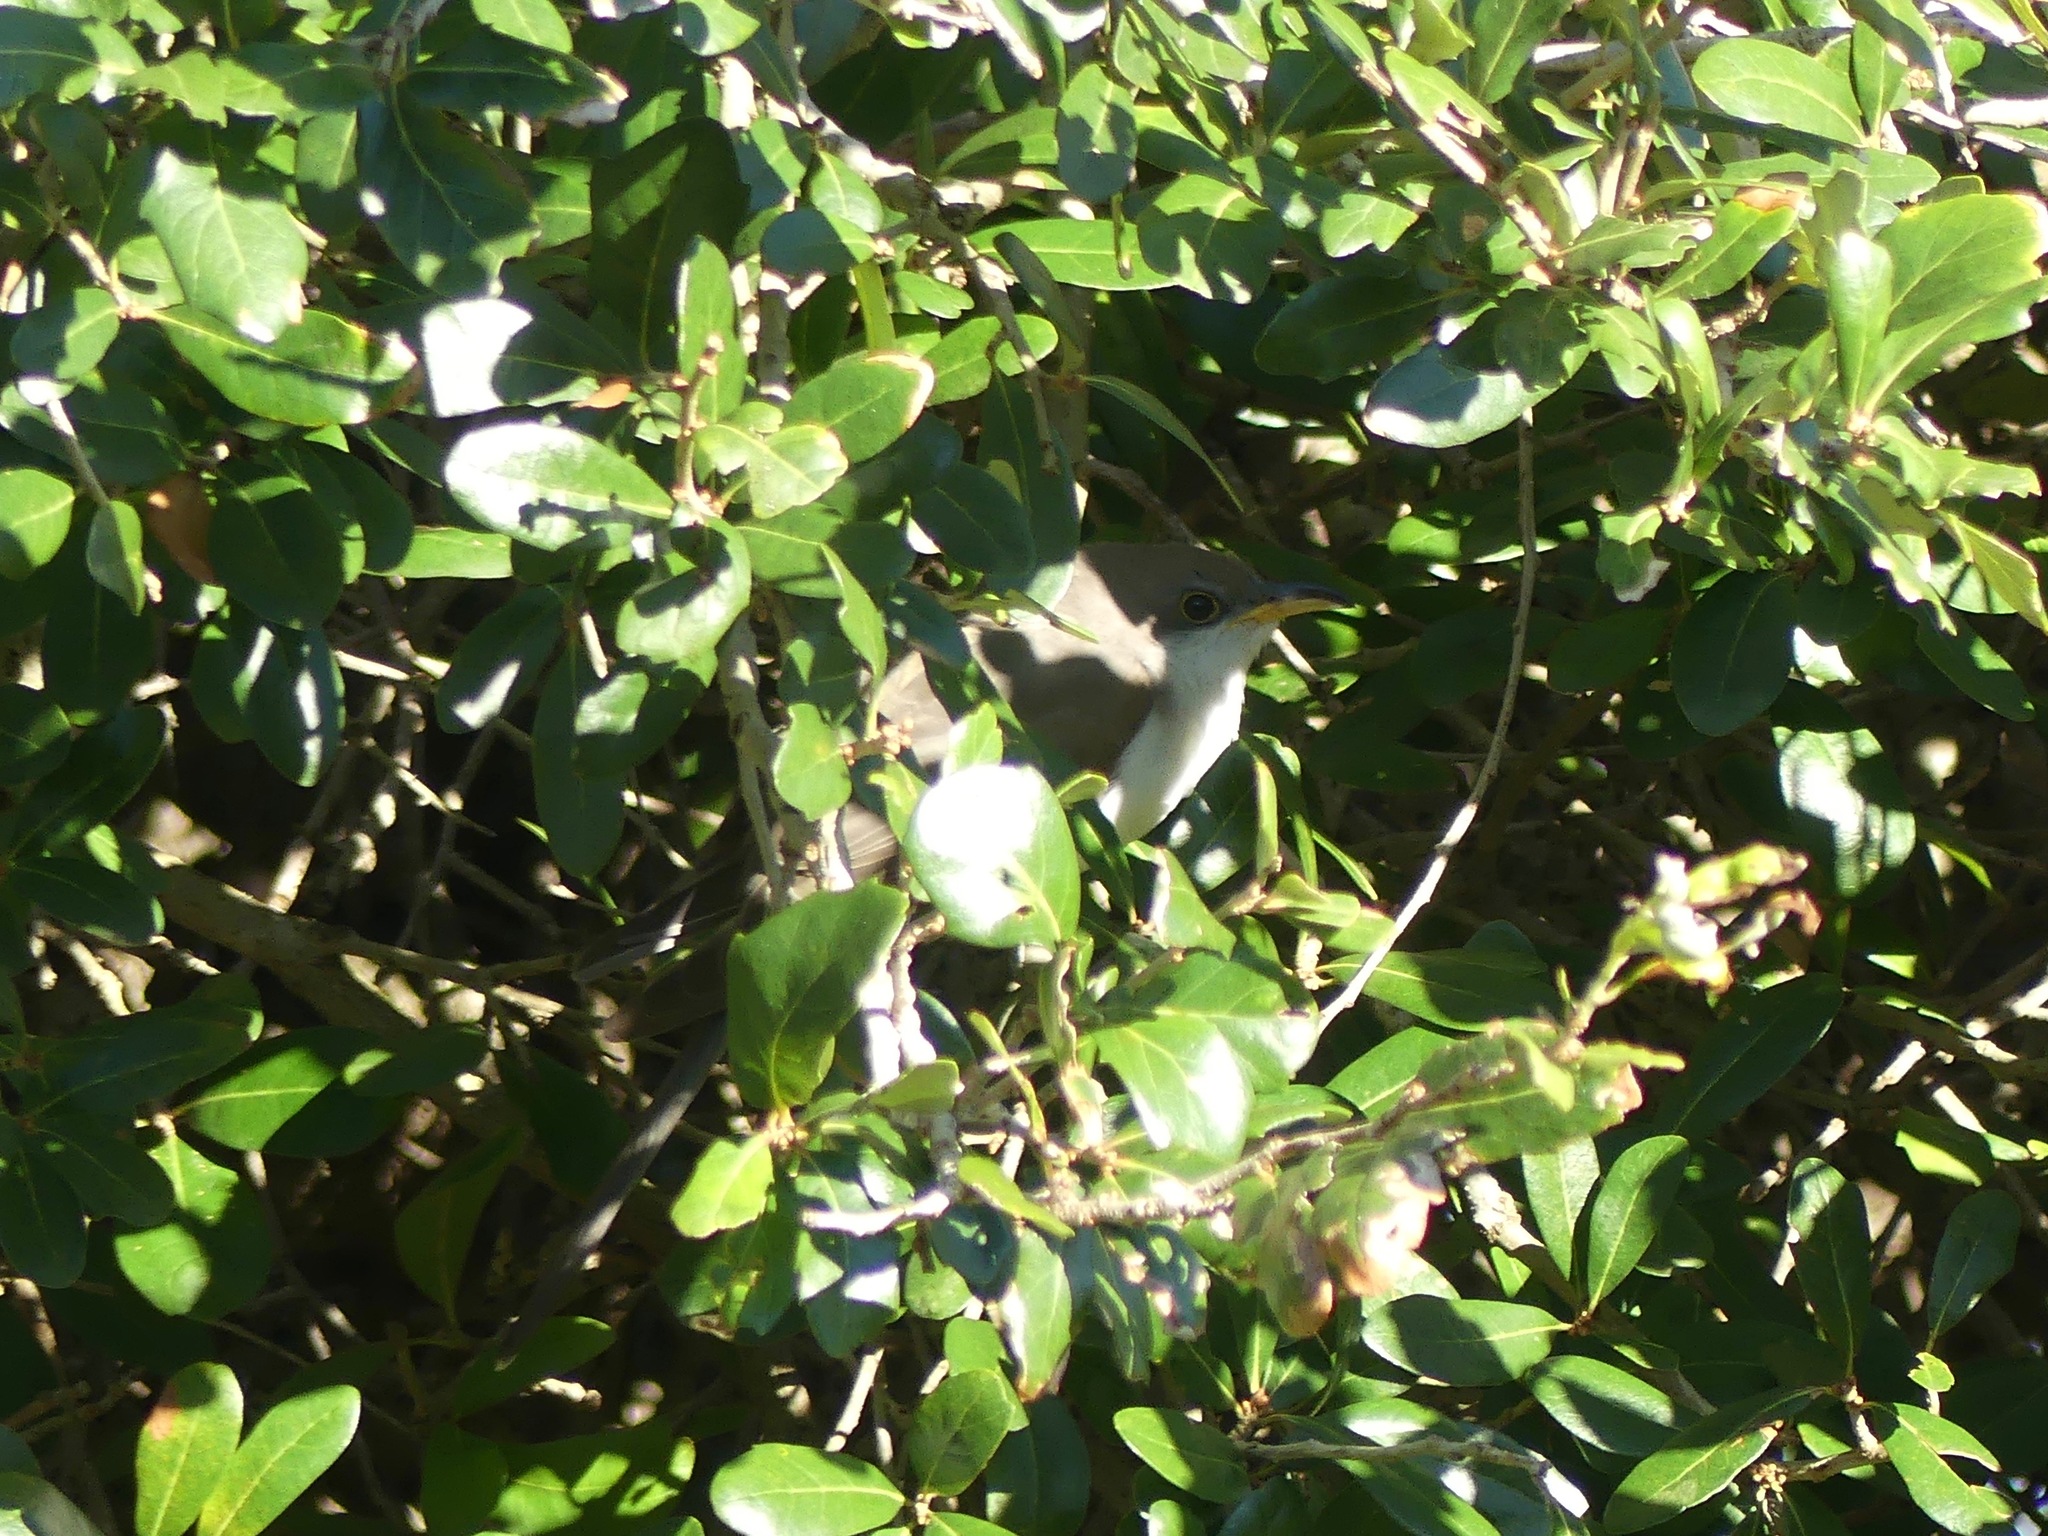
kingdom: Animalia
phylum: Chordata
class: Aves
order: Cuculiformes
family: Cuculidae
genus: Coccyzus
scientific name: Coccyzus americanus
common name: Yellow-billed cuckoo
